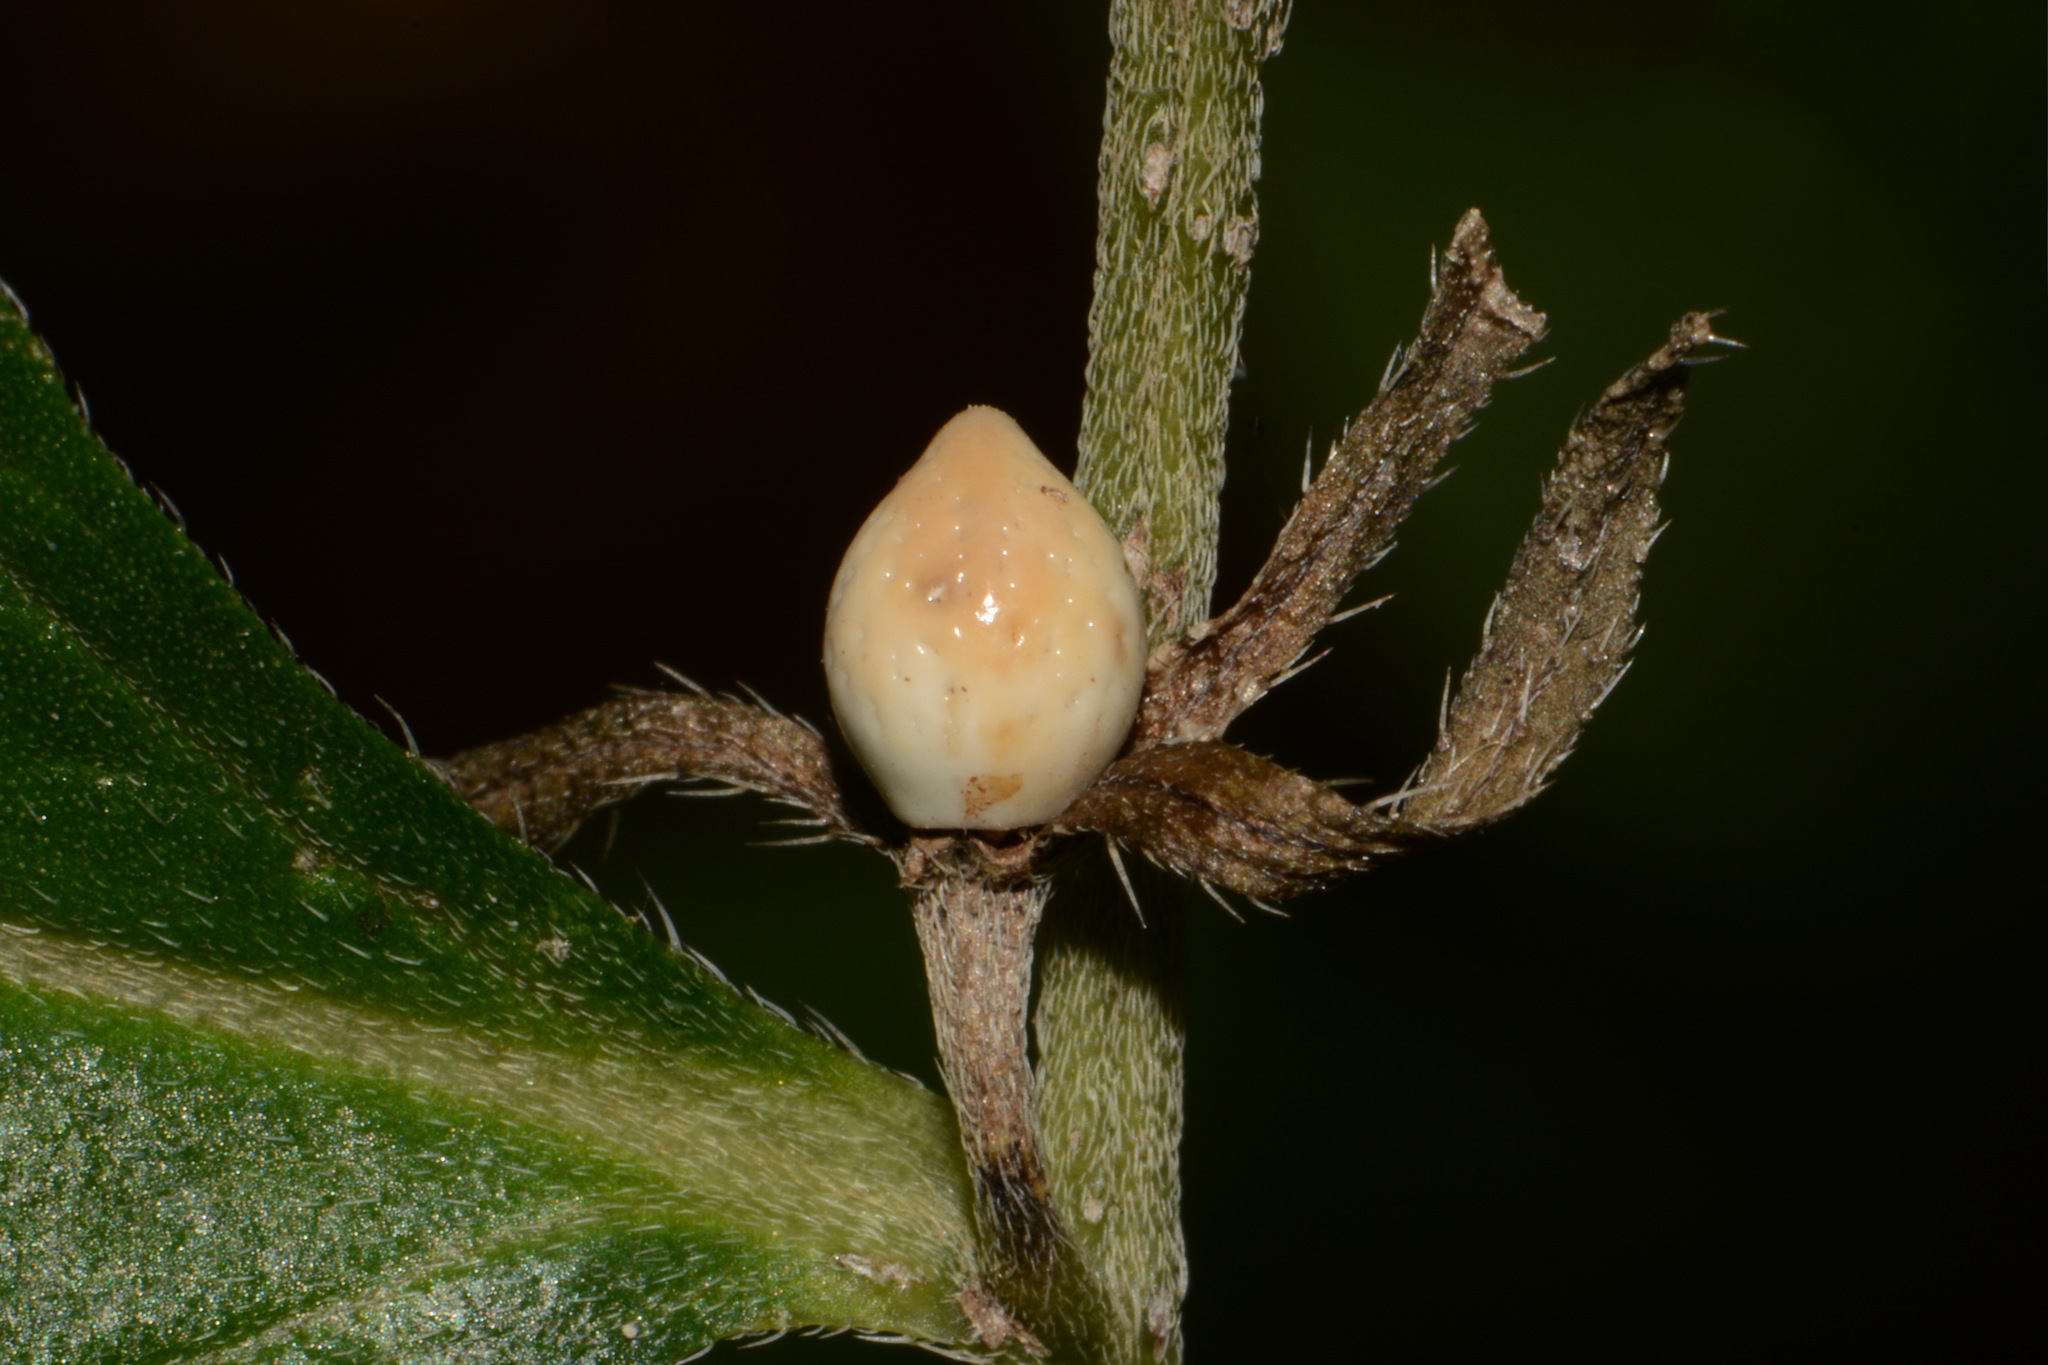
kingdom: Plantae
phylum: Tracheophyta
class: Magnoliopsida
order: Boraginales
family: Boraginaceae
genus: Lithospermum
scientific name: Lithospermum latifolium
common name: American gromwell
